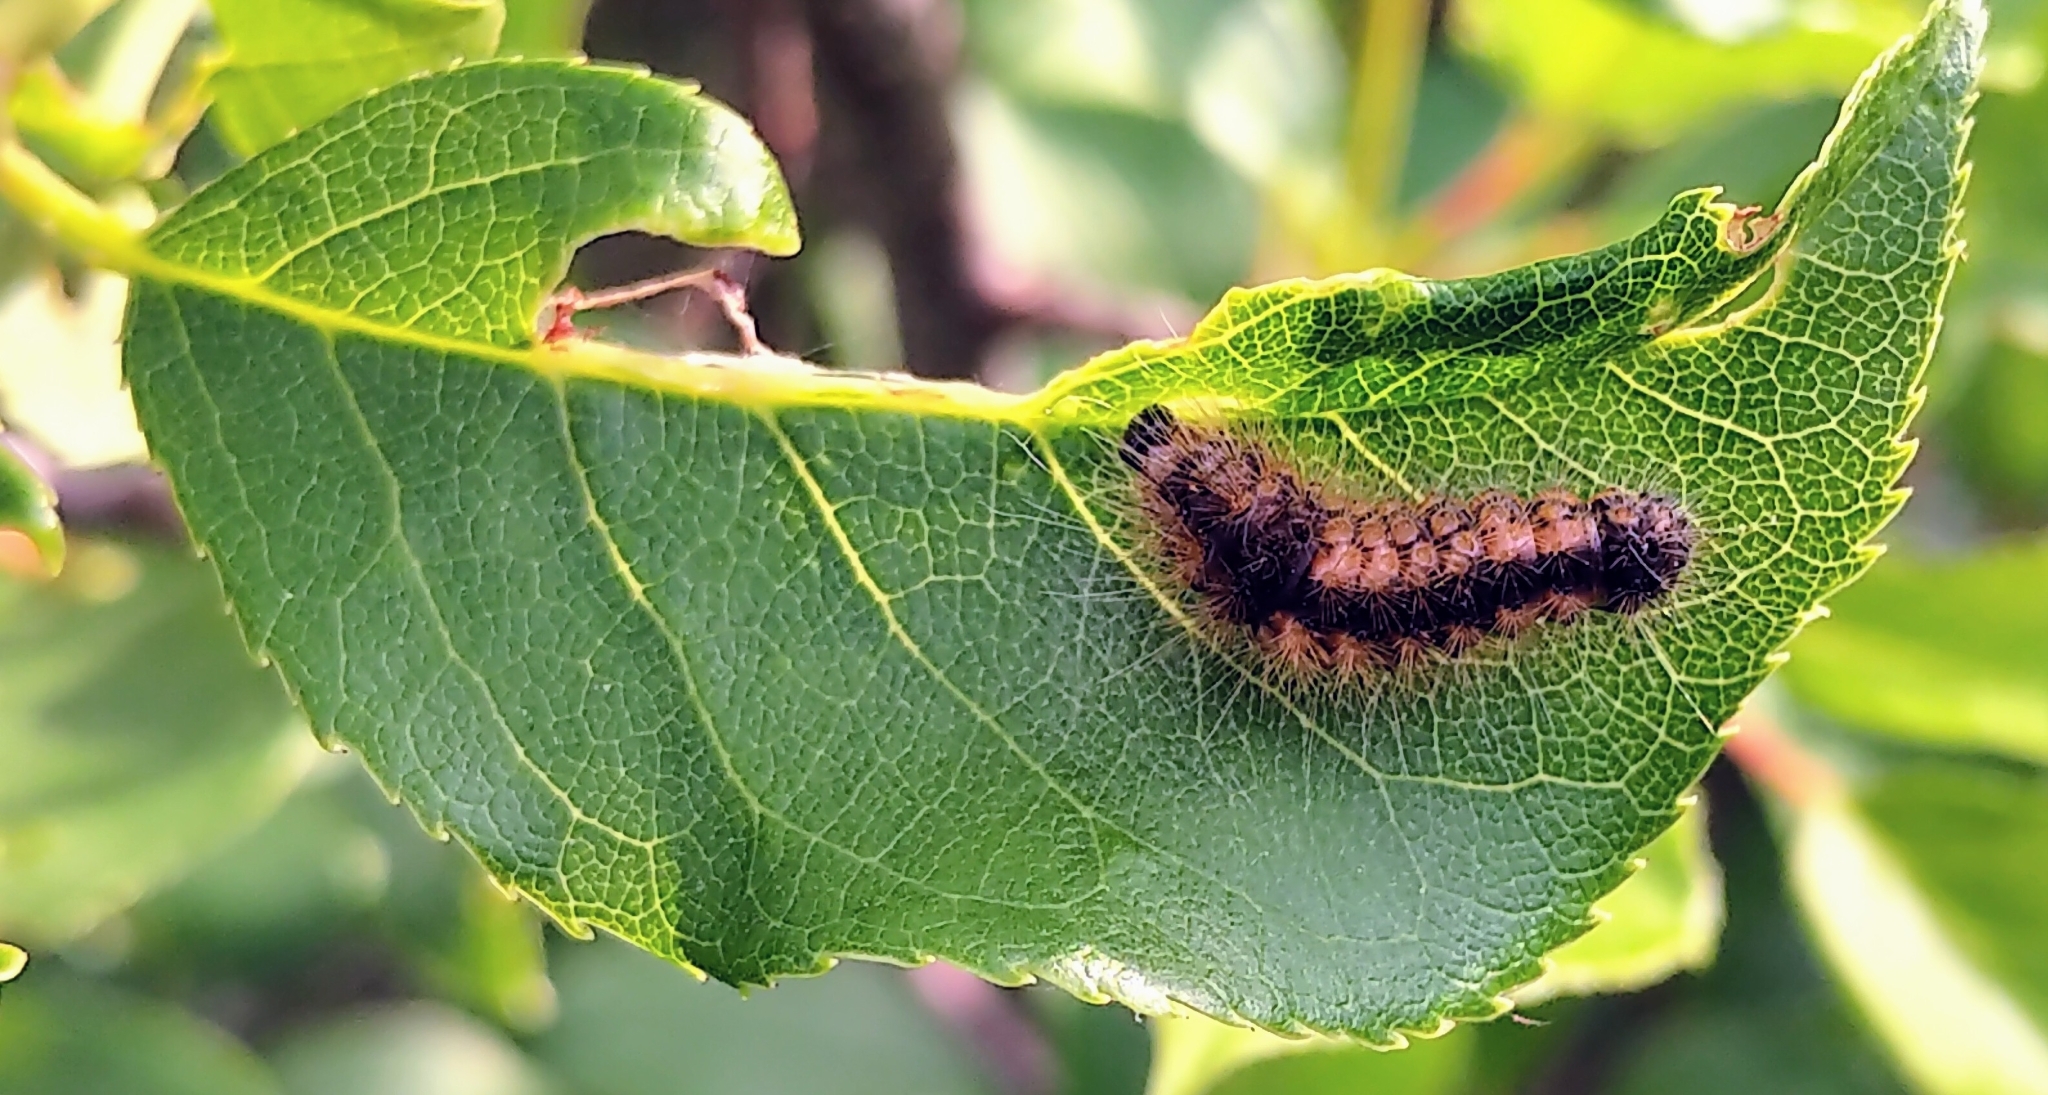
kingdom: Animalia
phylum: Arthropoda
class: Insecta
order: Lepidoptera
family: Noctuidae
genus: Acronicta
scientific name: Acronicta impleta
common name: Powdered dagger
